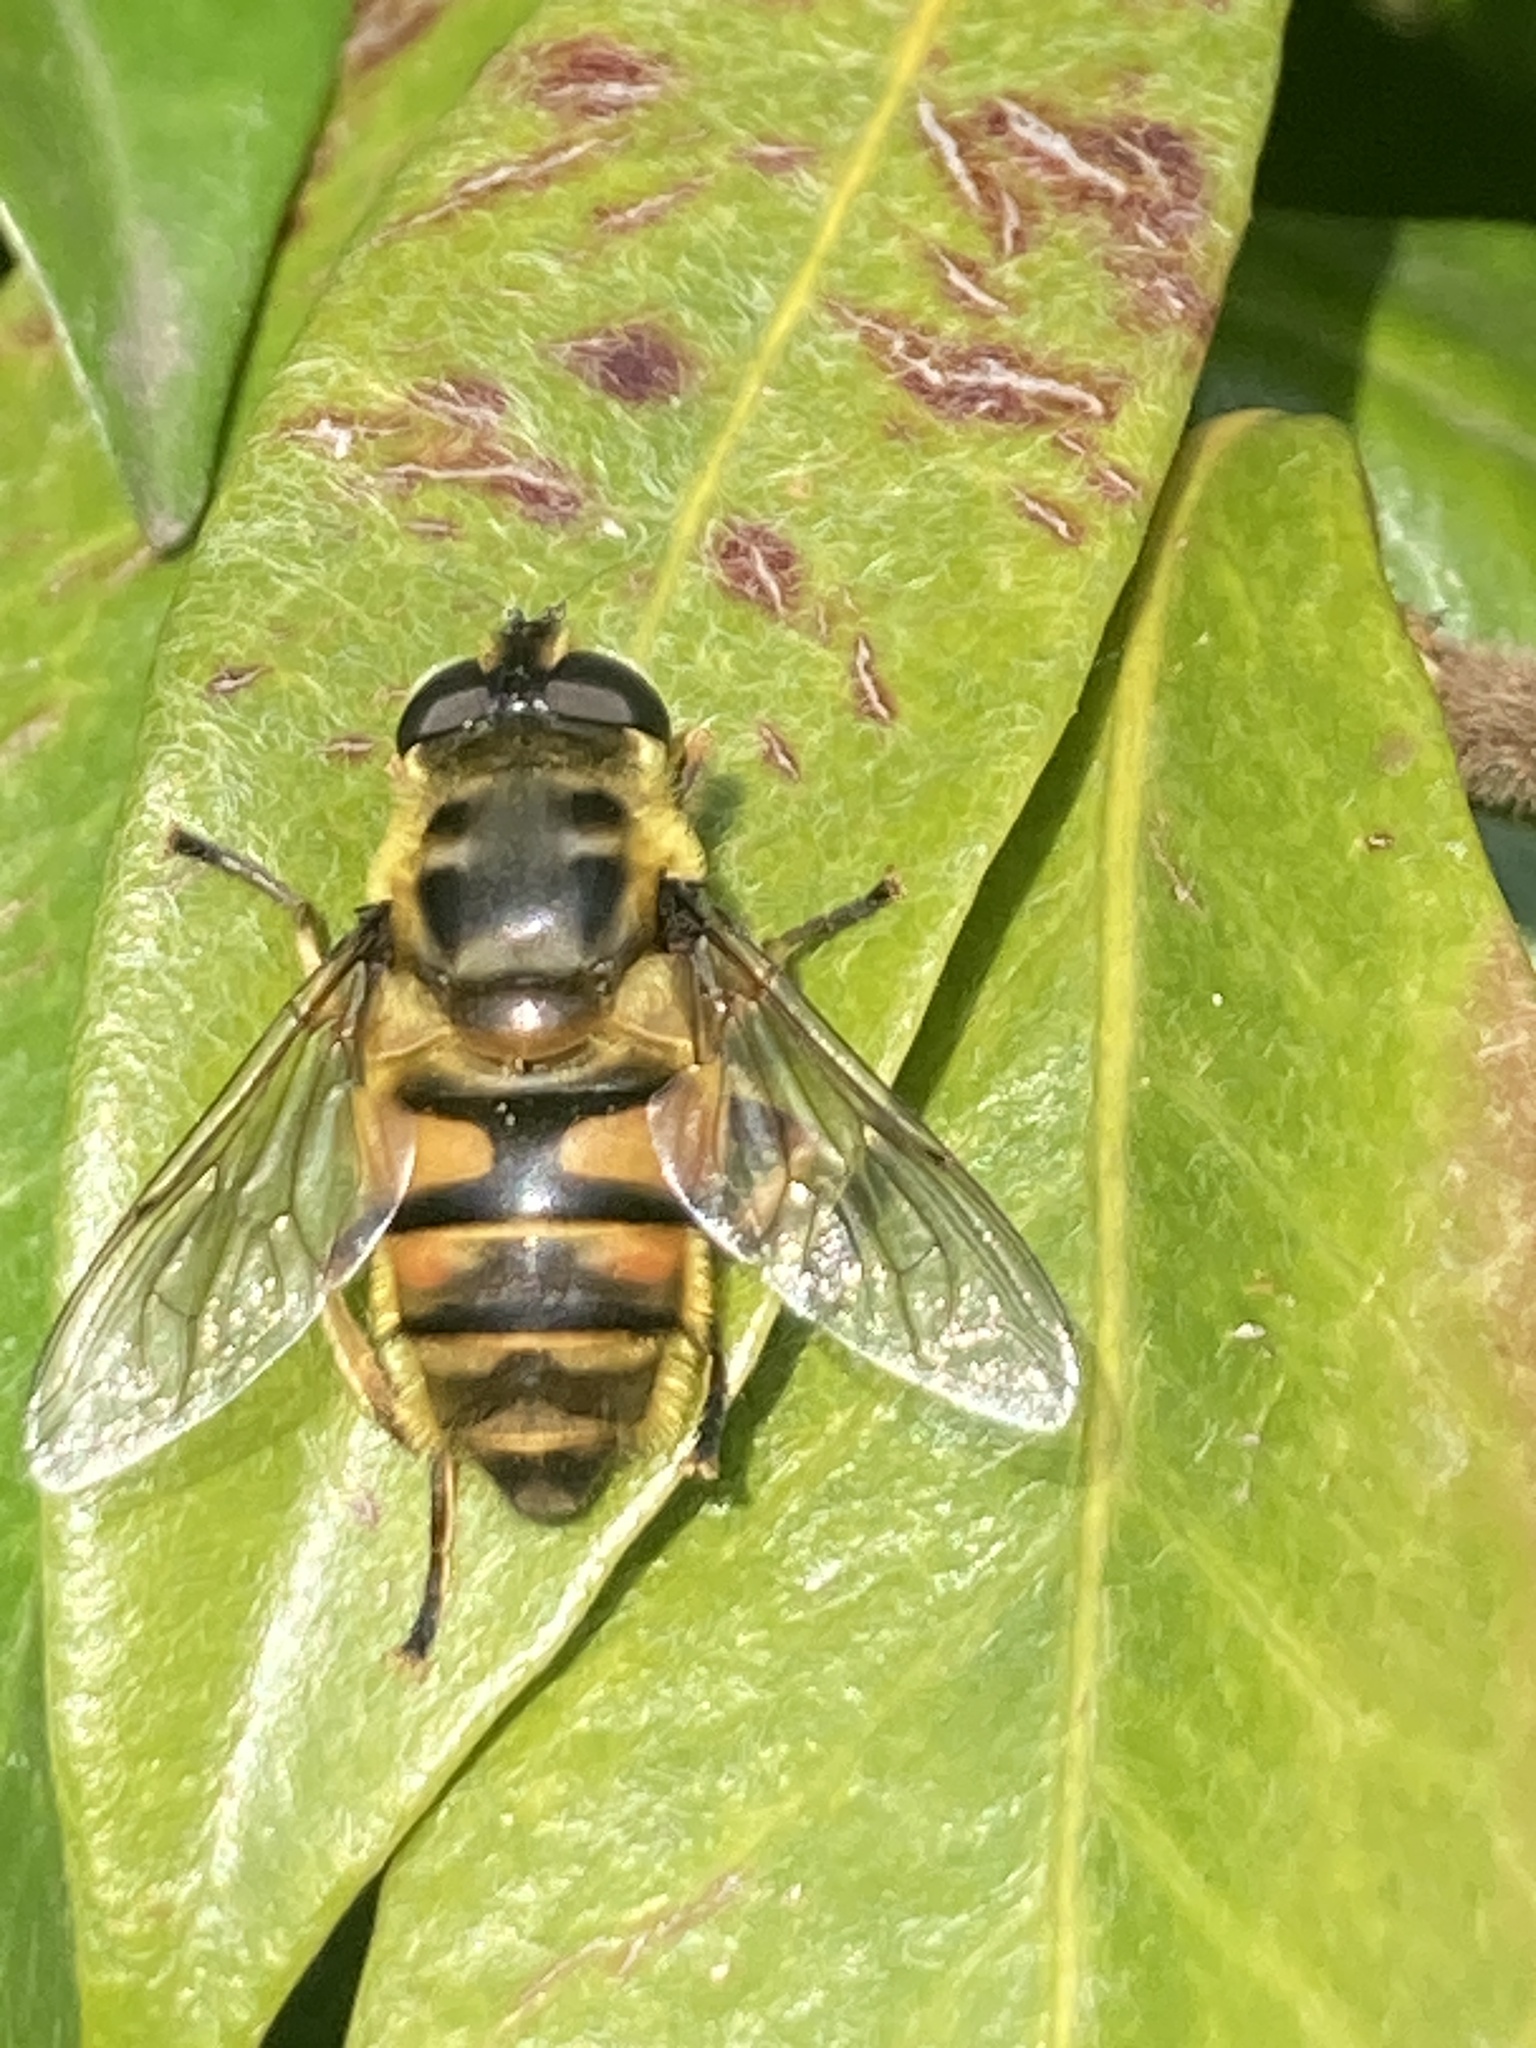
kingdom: Animalia
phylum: Arthropoda
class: Insecta
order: Diptera
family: Syrphidae
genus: Myathropa
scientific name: Myathropa florea
